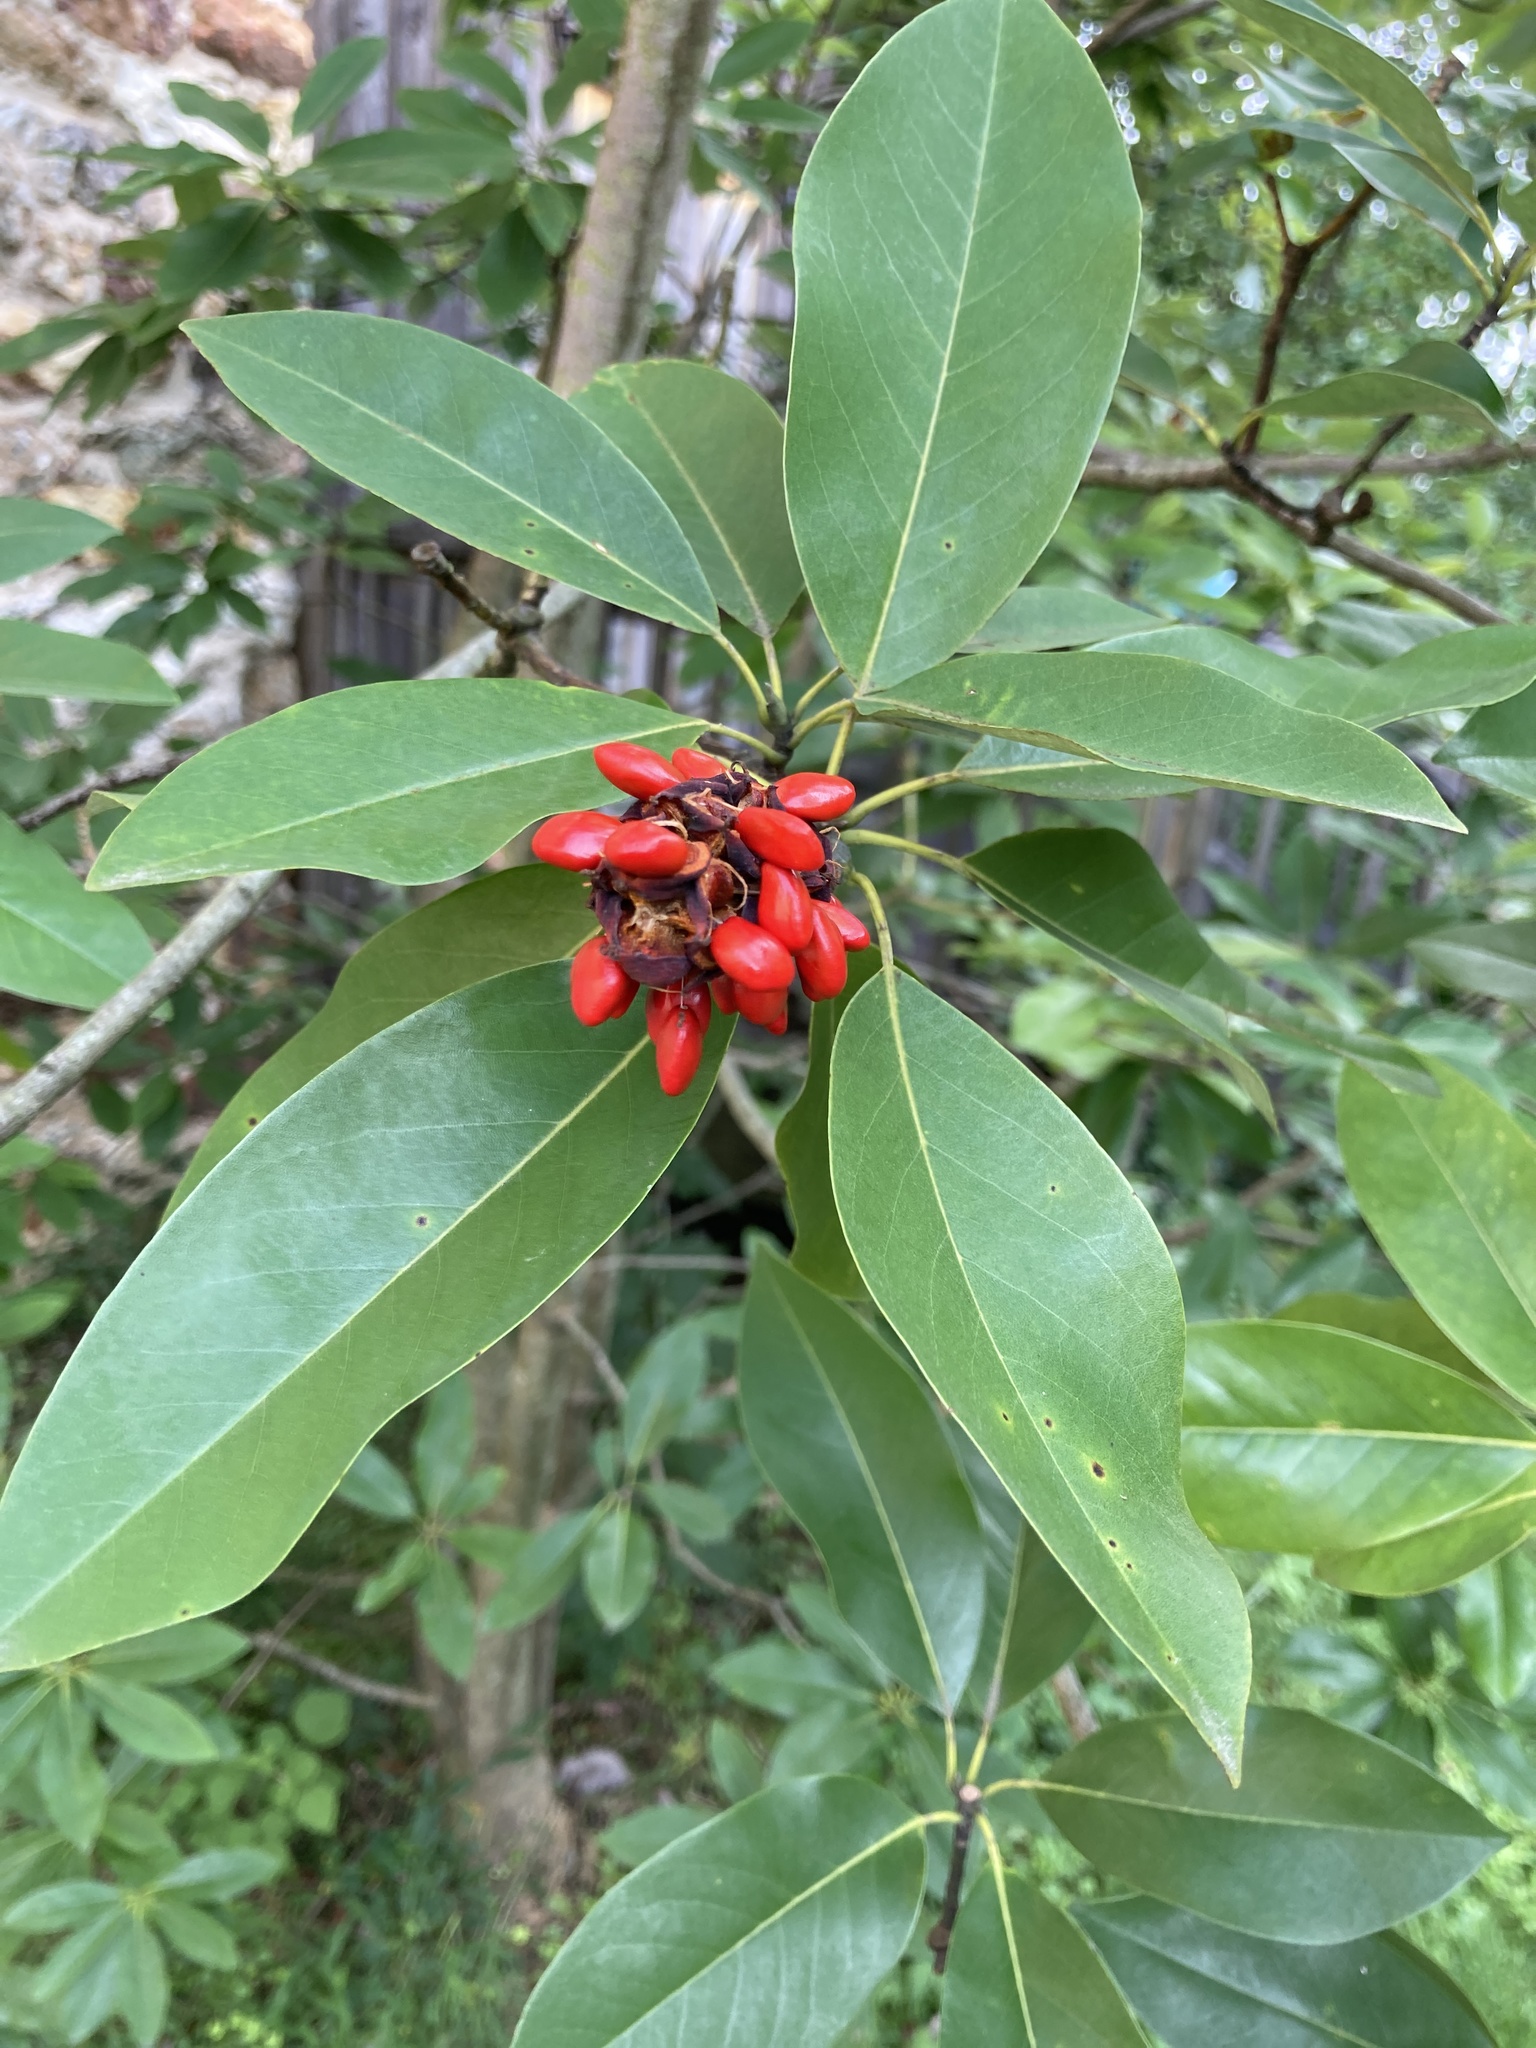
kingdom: Plantae
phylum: Tracheophyta
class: Magnoliopsida
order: Magnoliales
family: Magnoliaceae
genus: Magnolia
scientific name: Magnolia virginiana
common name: Swamp bay
